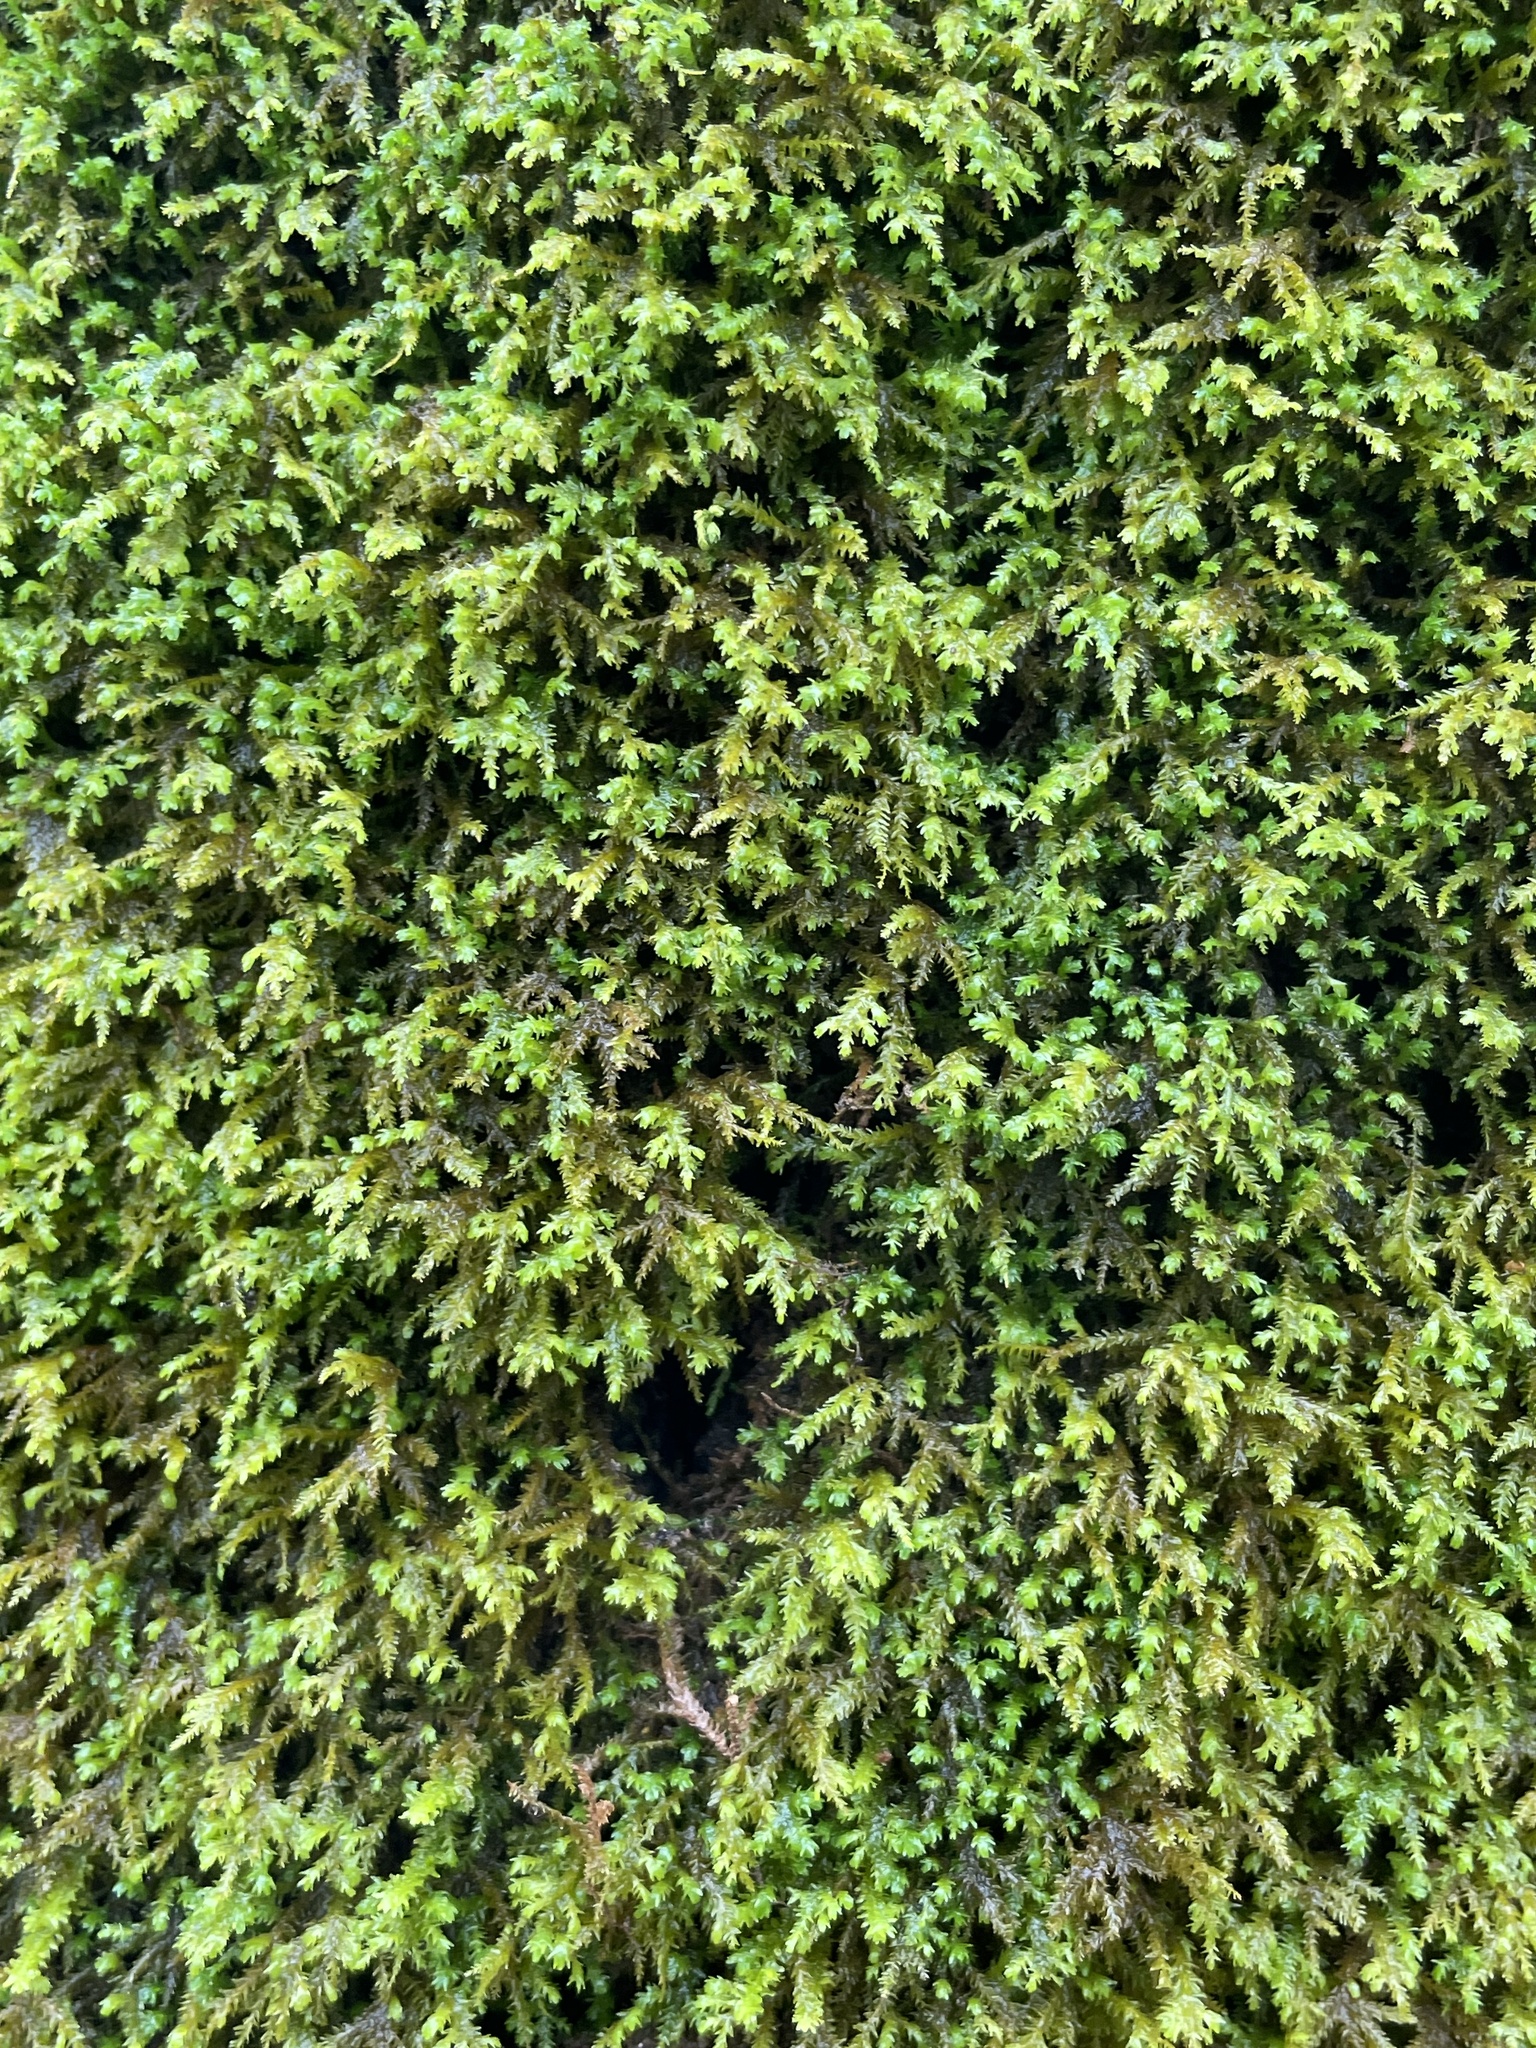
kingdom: Plantae
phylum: Bryophyta
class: Bryopsida
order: Hypnales
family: Neckeraceae
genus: Pseudanomodon
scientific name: Pseudanomodon attenuatus
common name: Tree-skirt moss
